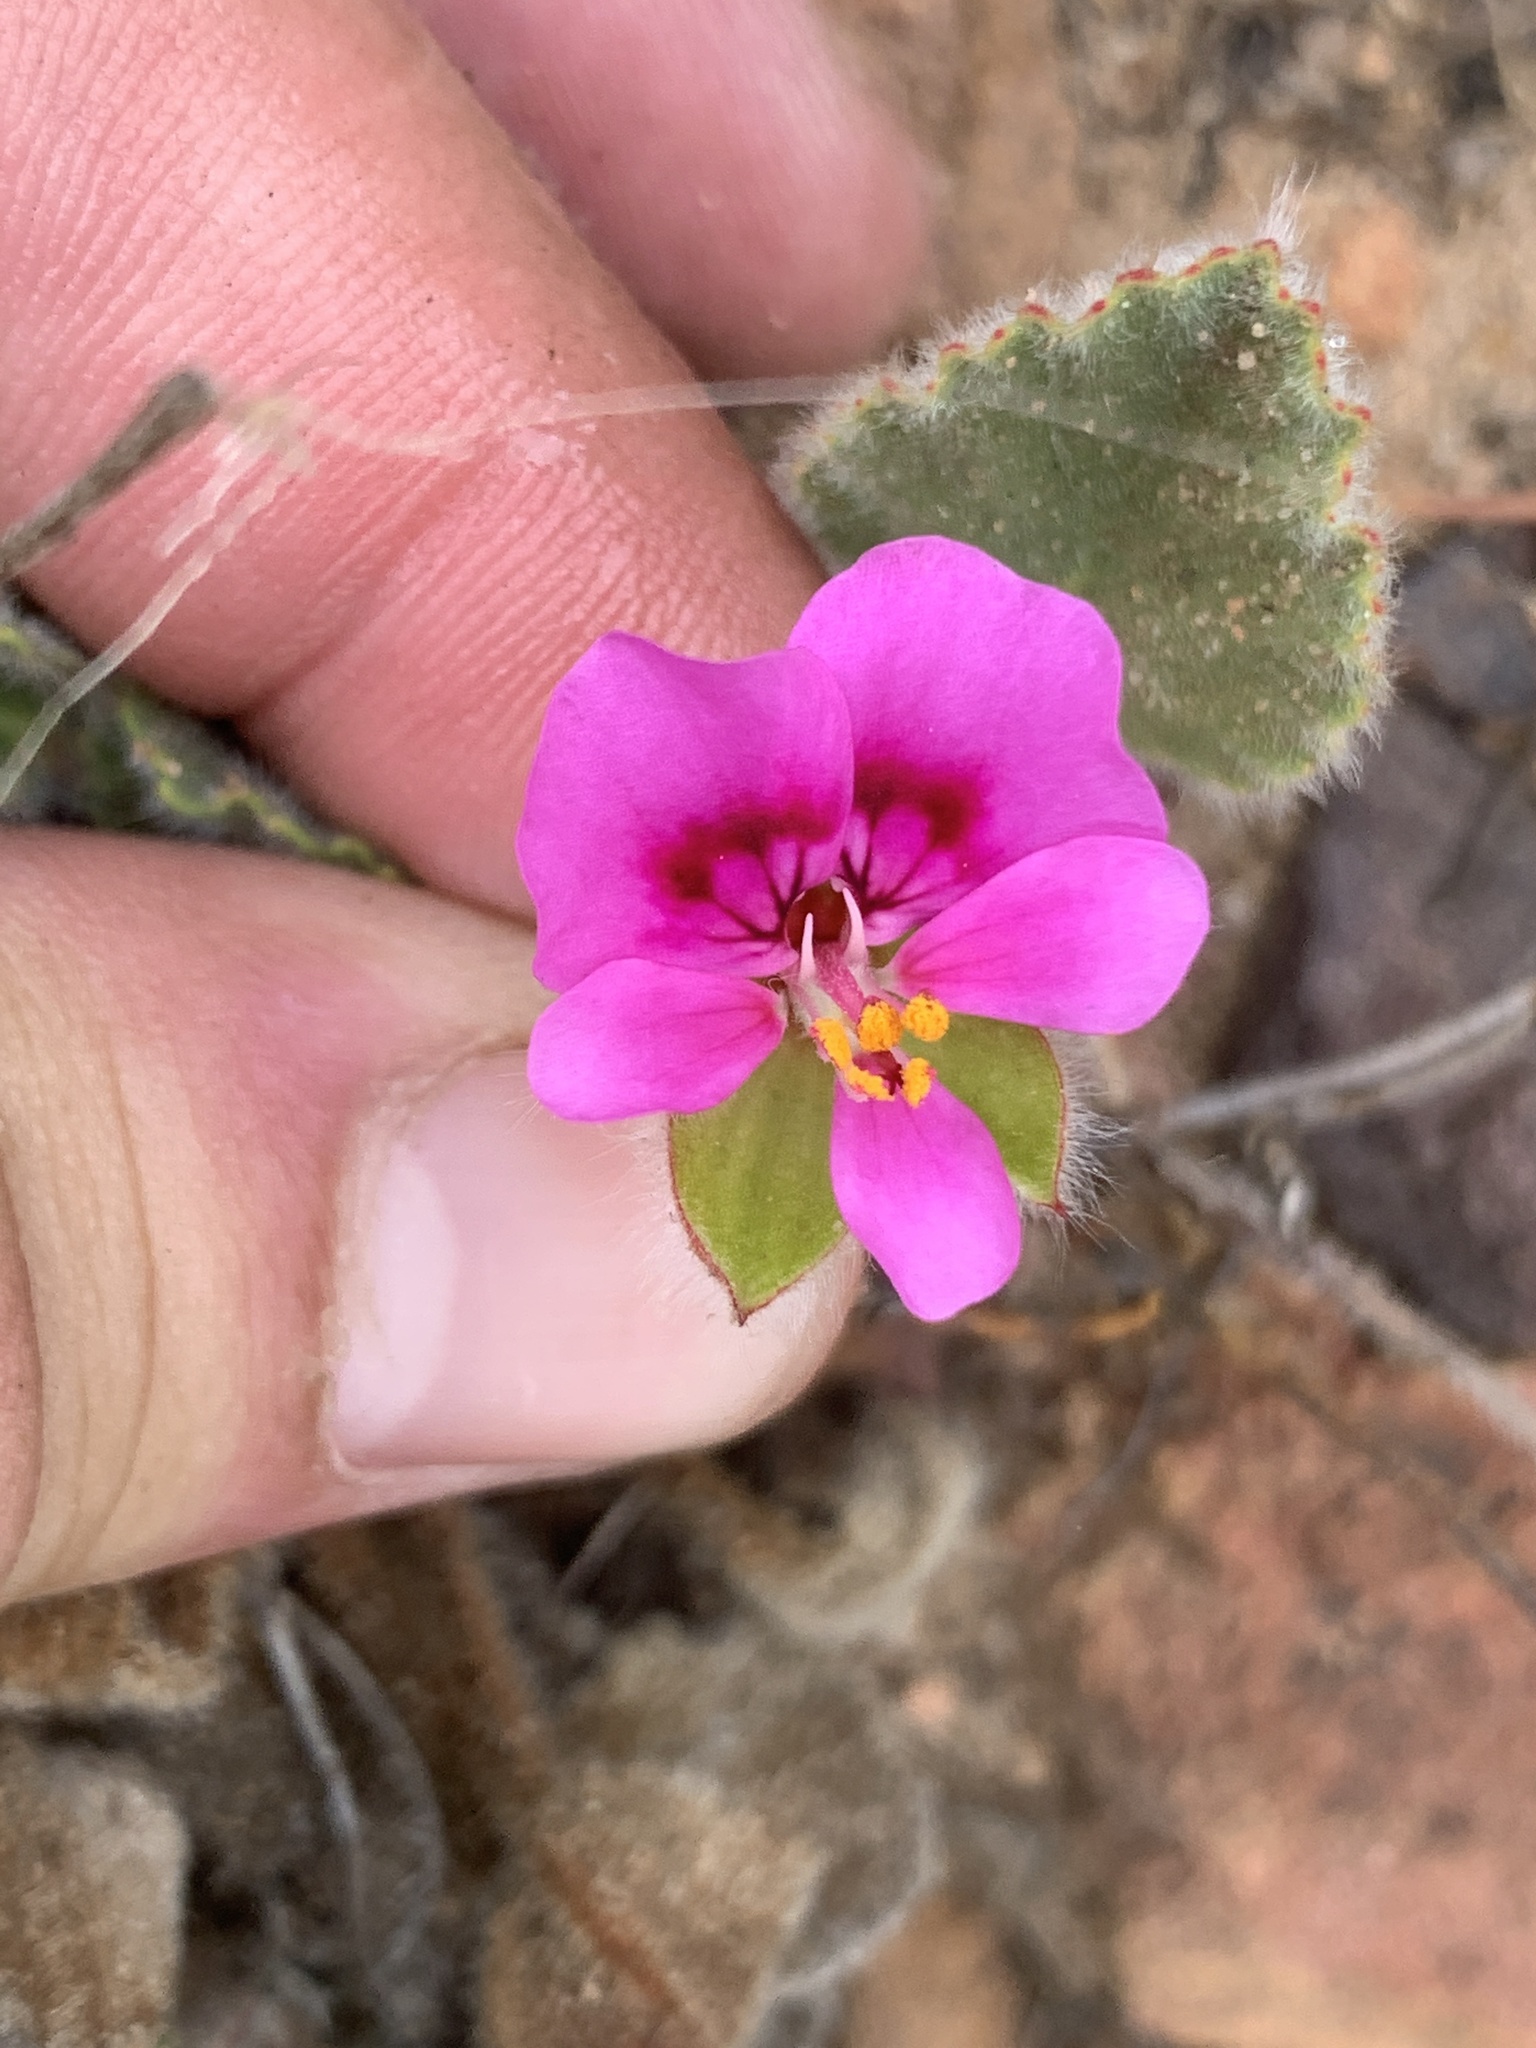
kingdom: Plantae
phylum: Tracheophyta
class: Magnoliopsida
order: Geraniales
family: Geraniaceae
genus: Pelargonium
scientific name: Pelargonium ovale
